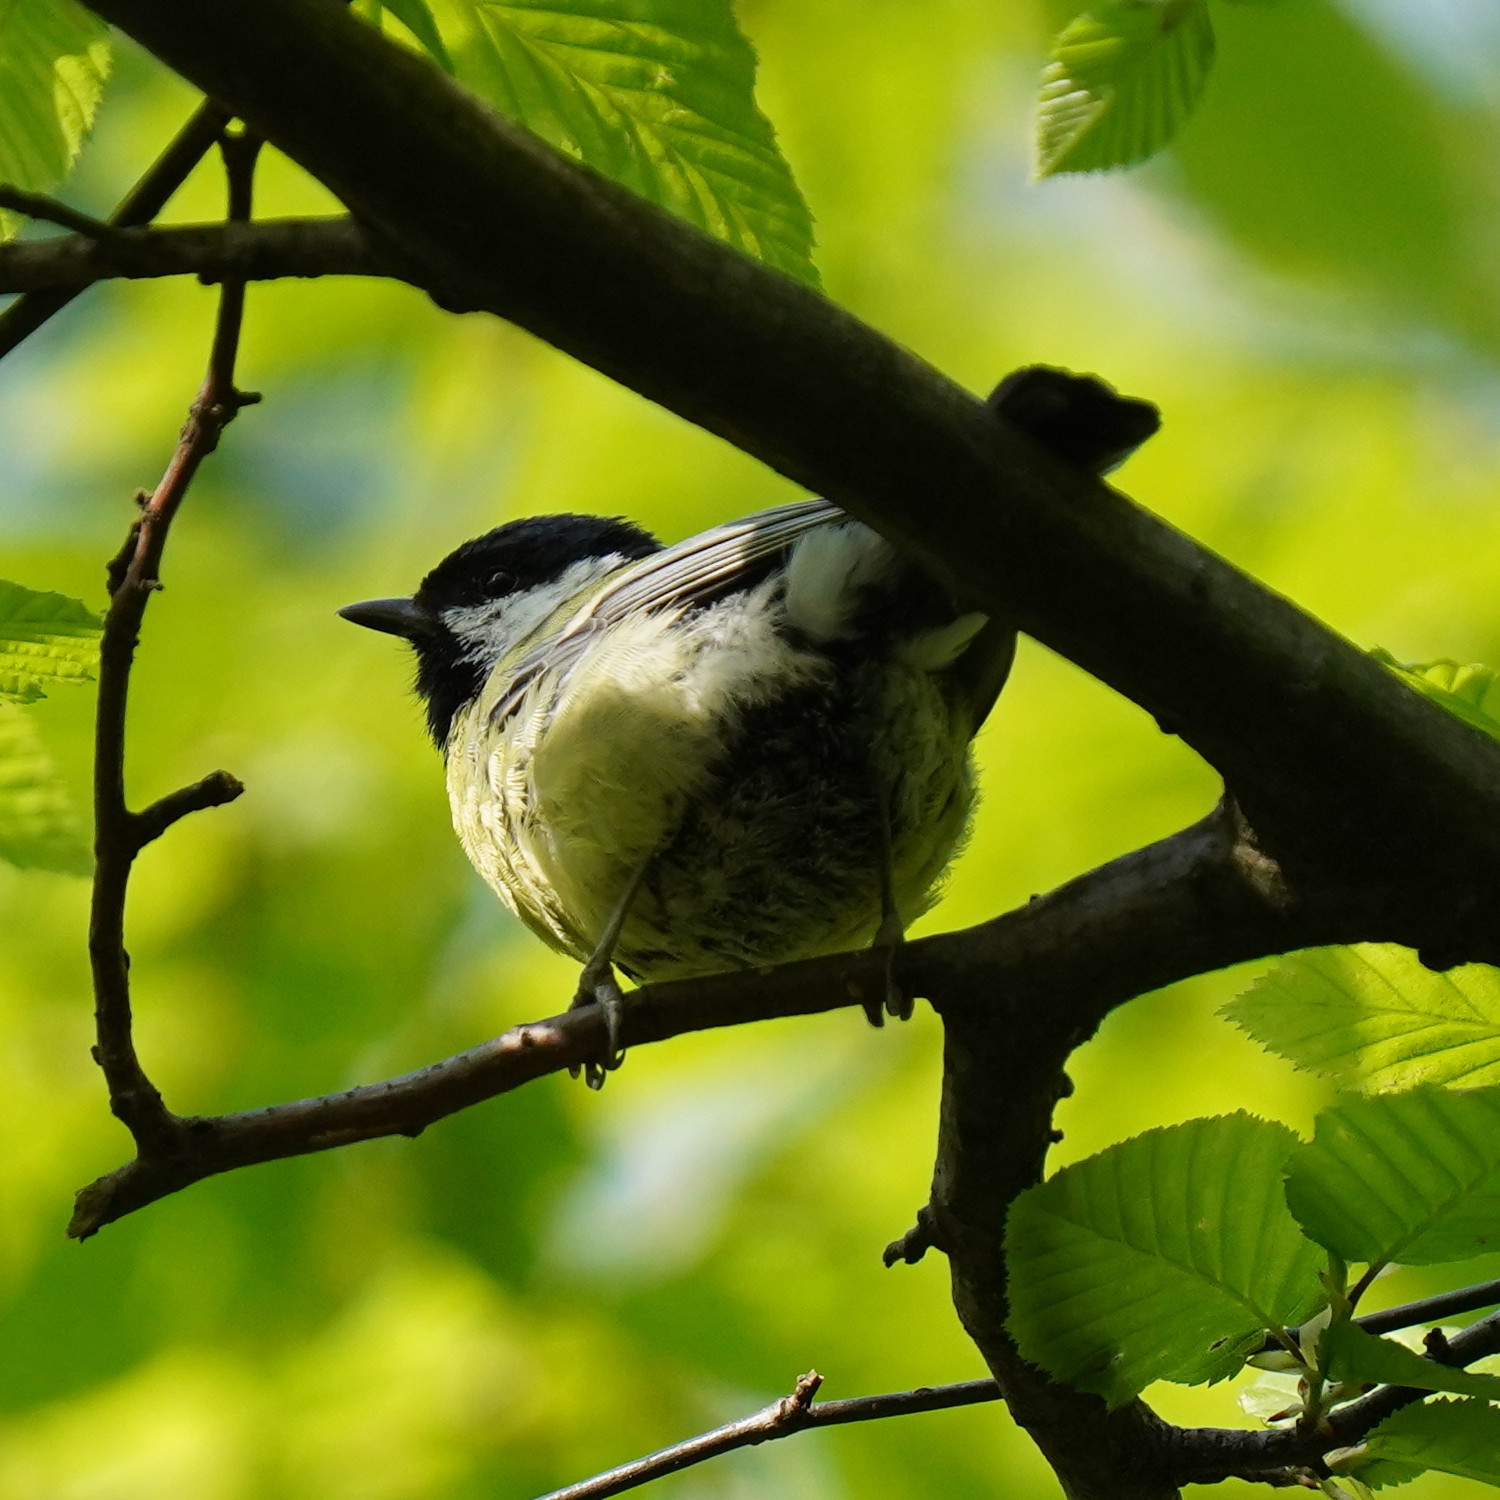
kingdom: Animalia
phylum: Chordata
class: Aves
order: Passeriformes
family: Paridae
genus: Parus
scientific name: Parus major
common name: Great tit
